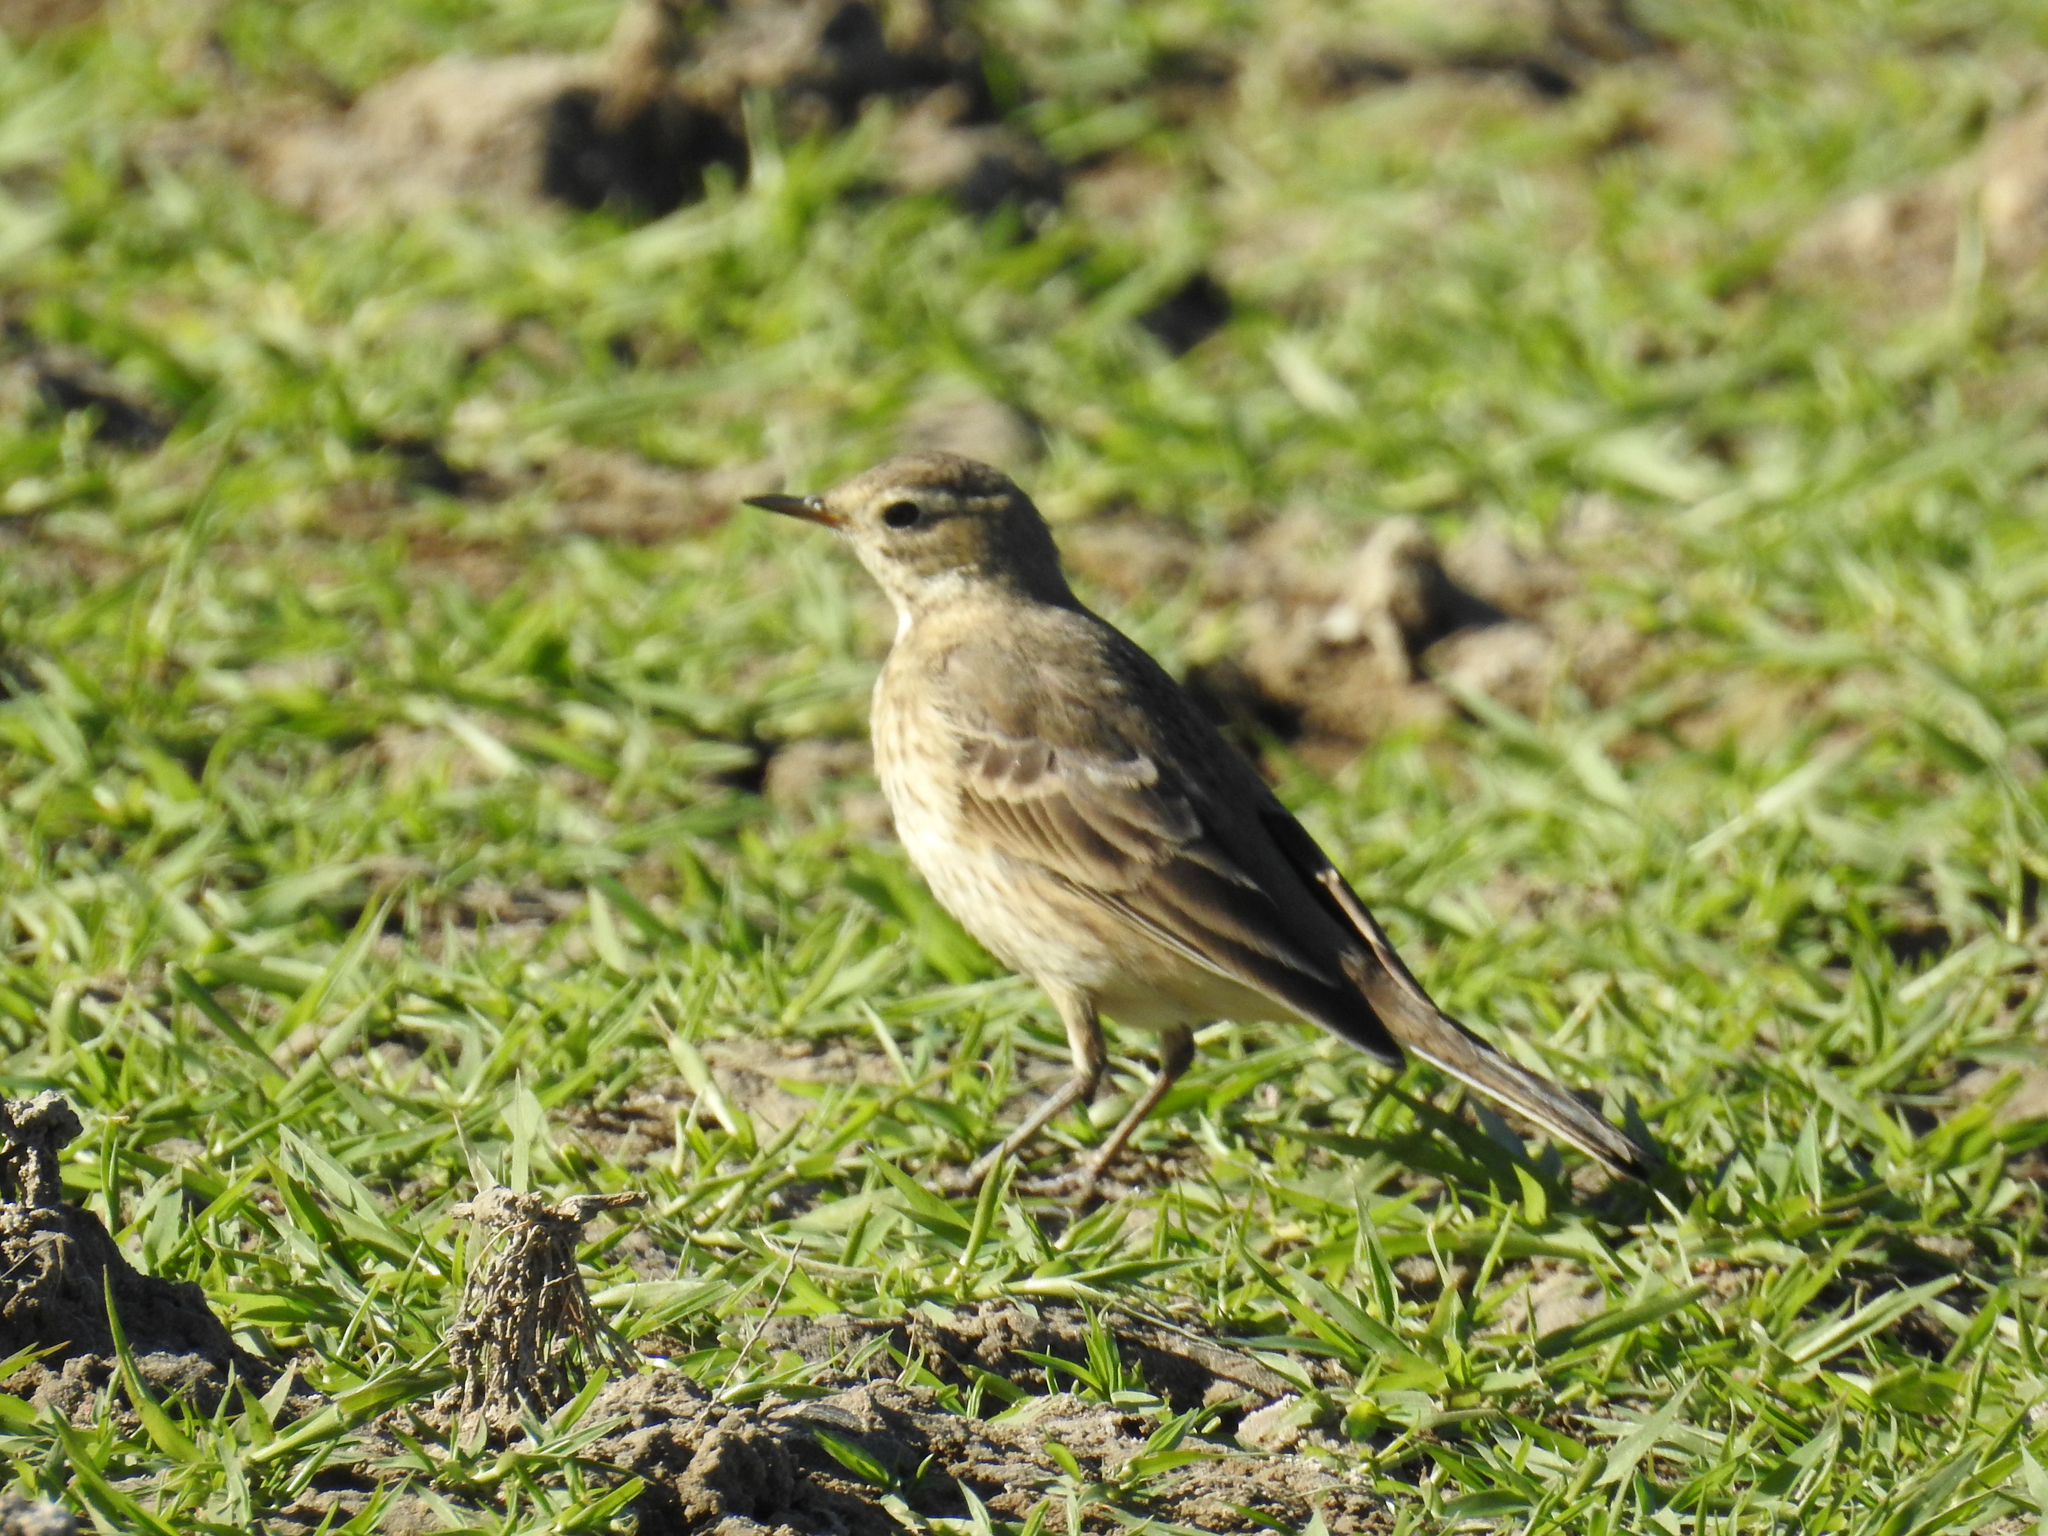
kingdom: Animalia
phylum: Chordata
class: Aves
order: Passeriformes
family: Motacillidae
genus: Anthus
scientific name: Anthus rubescens
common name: Buff-bellied pipit
